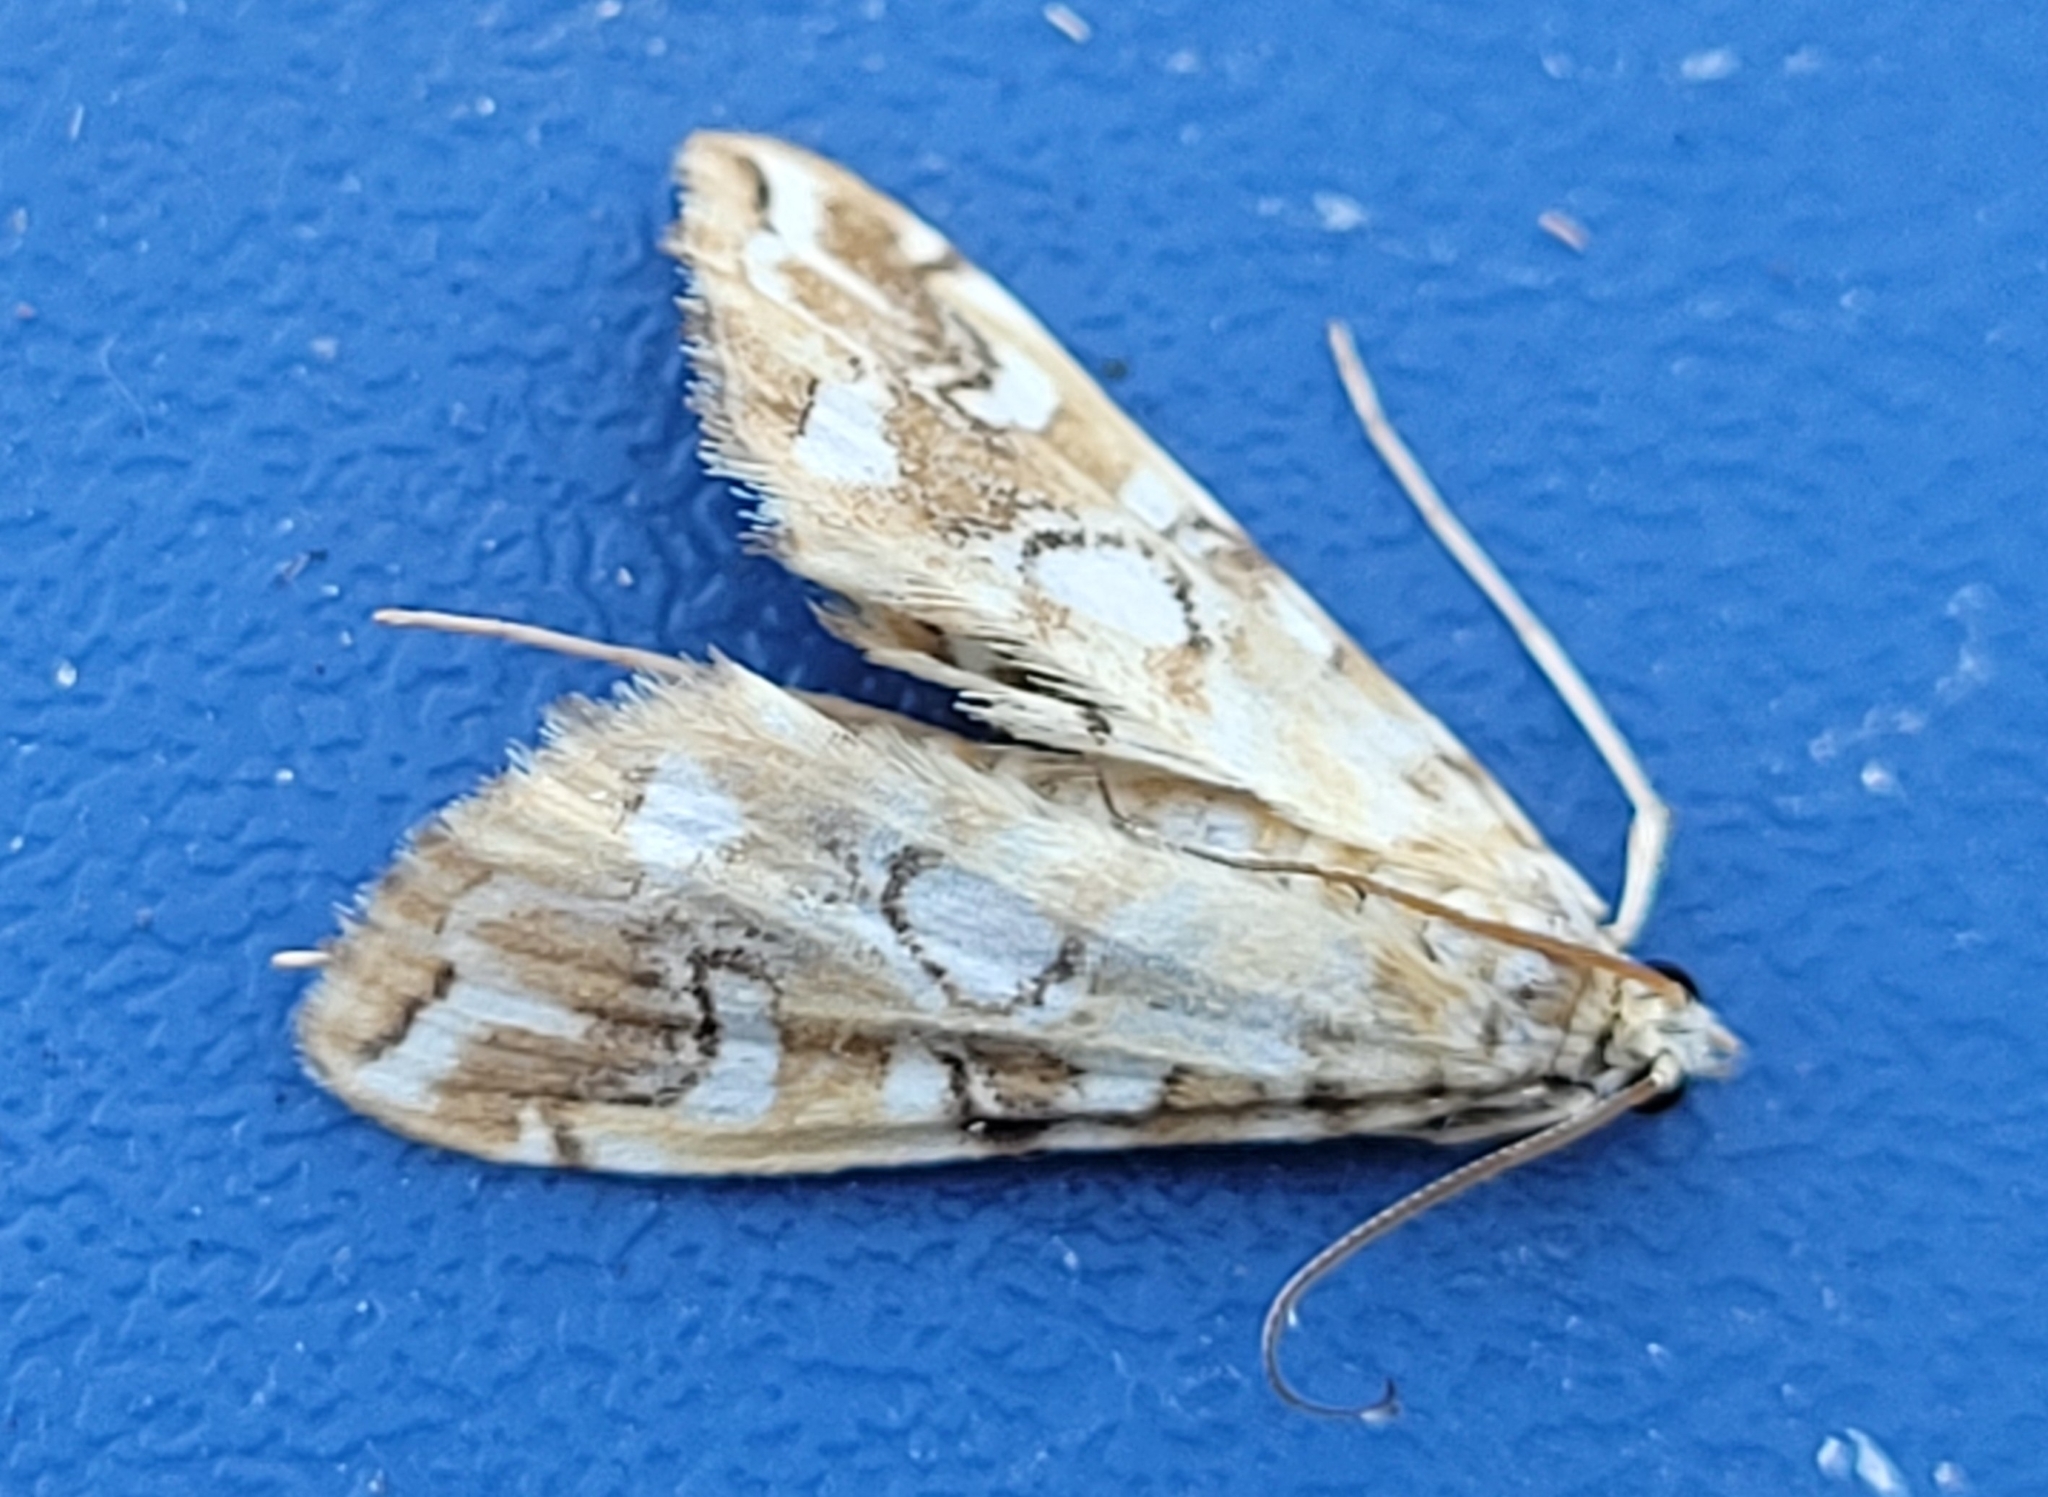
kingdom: Animalia
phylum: Arthropoda
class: Insecta
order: Lepidoptera
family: Crambidae
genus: Elophila
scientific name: Elophila icciusalis
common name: Pondside pyralid moth
